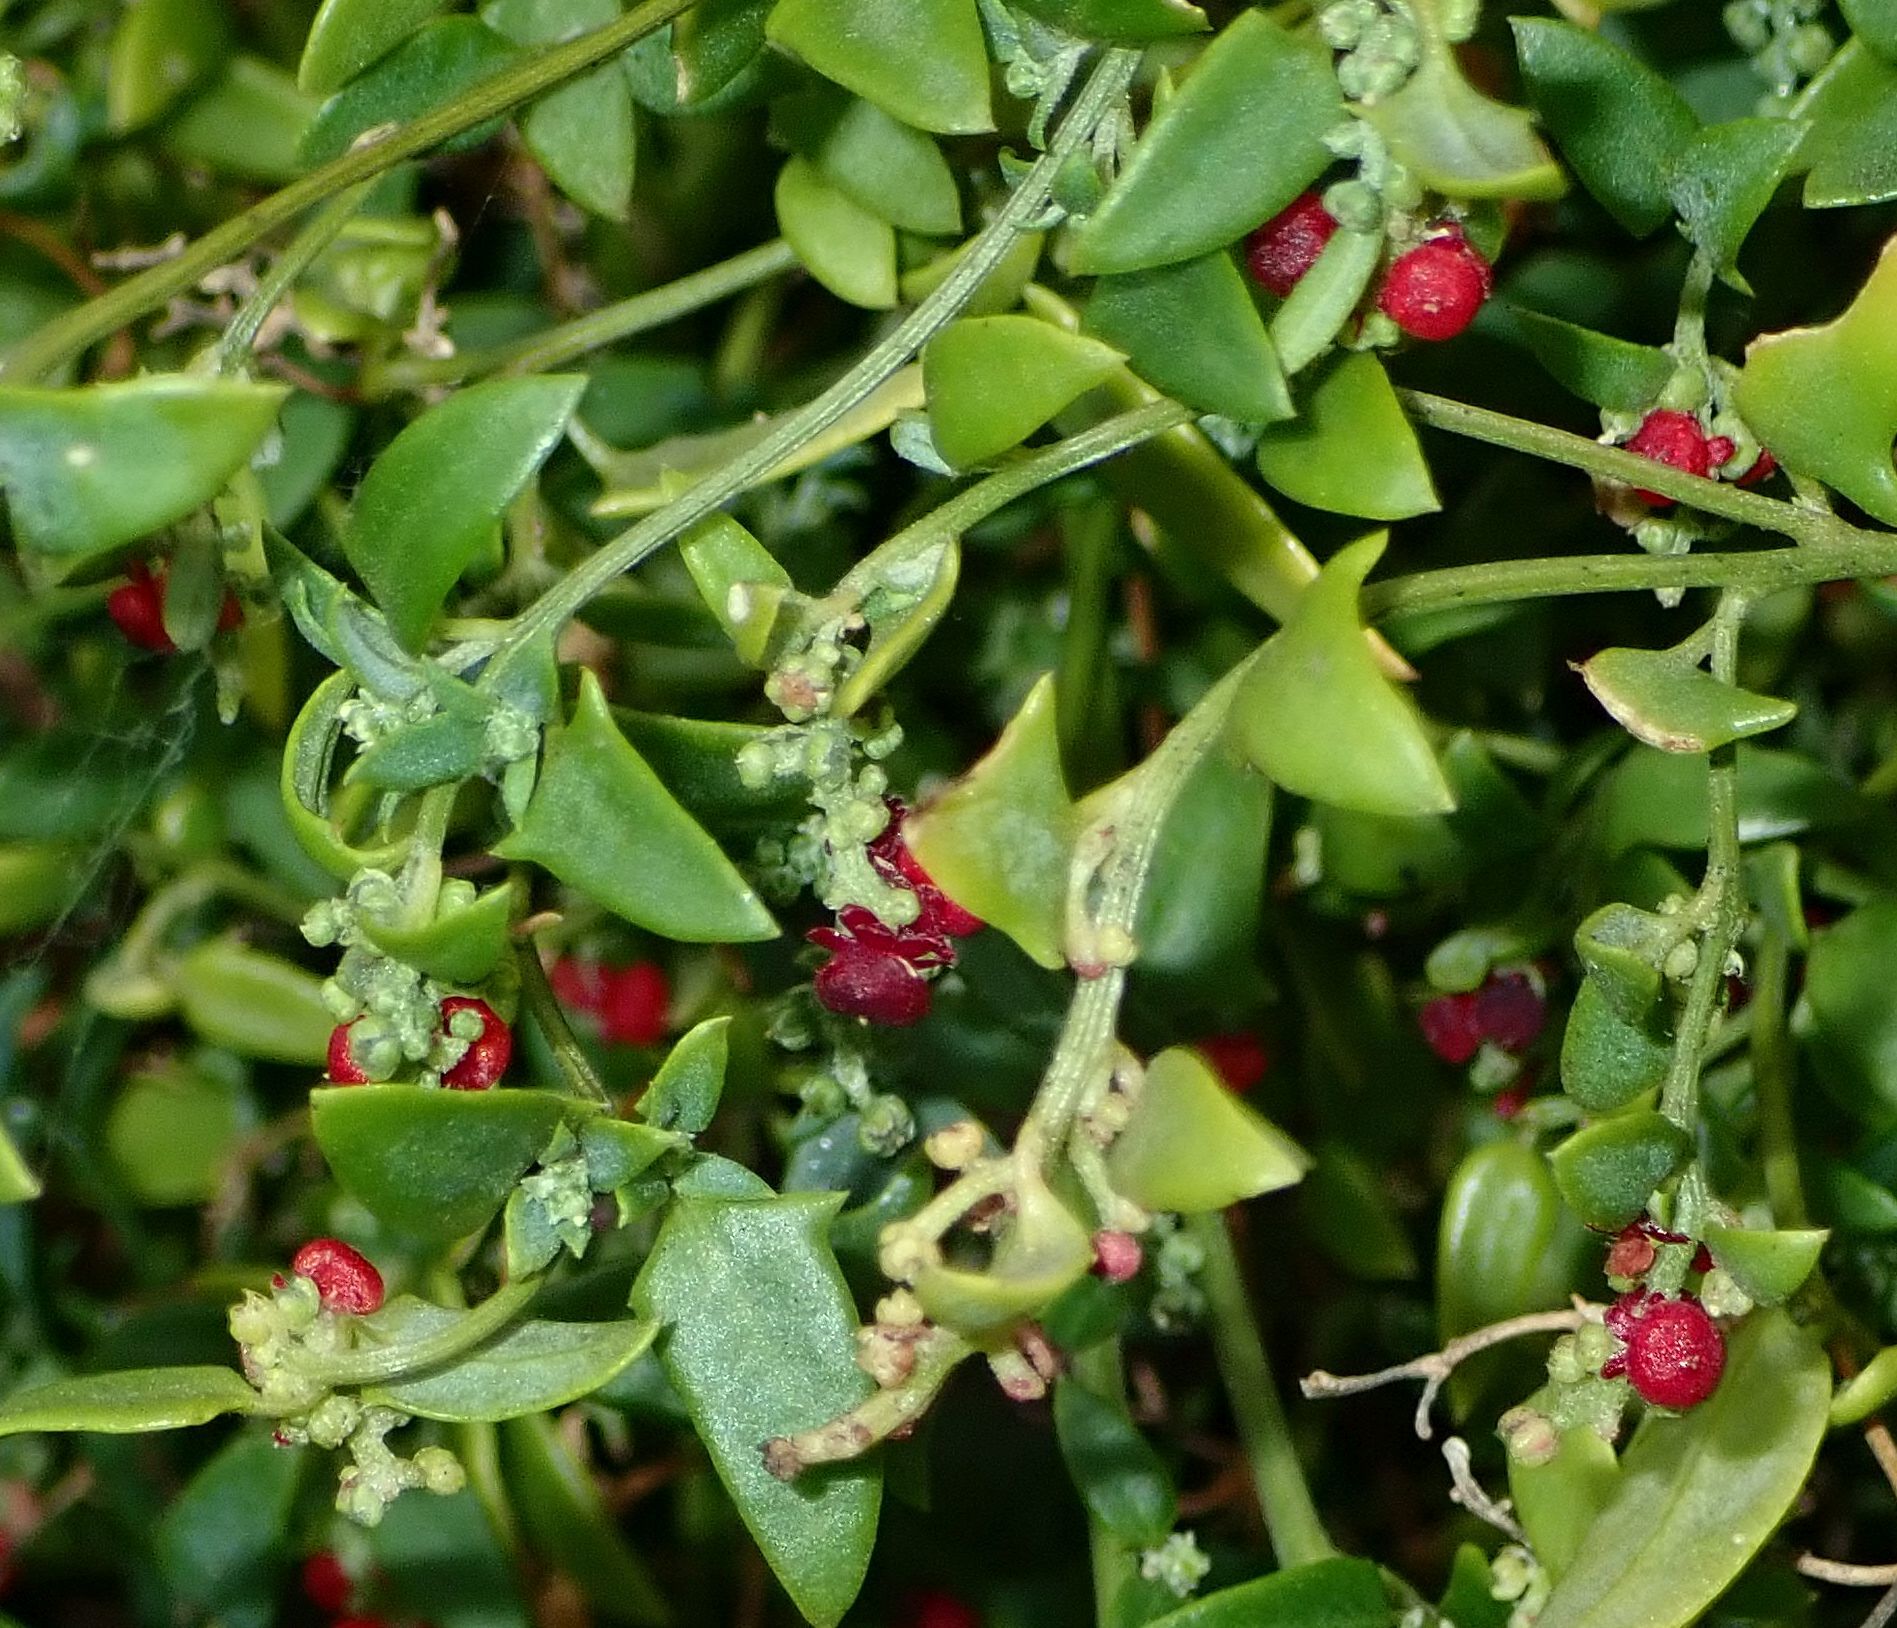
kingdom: Plantae
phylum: Tracheophyta
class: Magnoliopsida
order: Caryophyllales
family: Amaranthaceae
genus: Chenopodium
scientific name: Chenopodium nutans
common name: Climbing-saltbush
